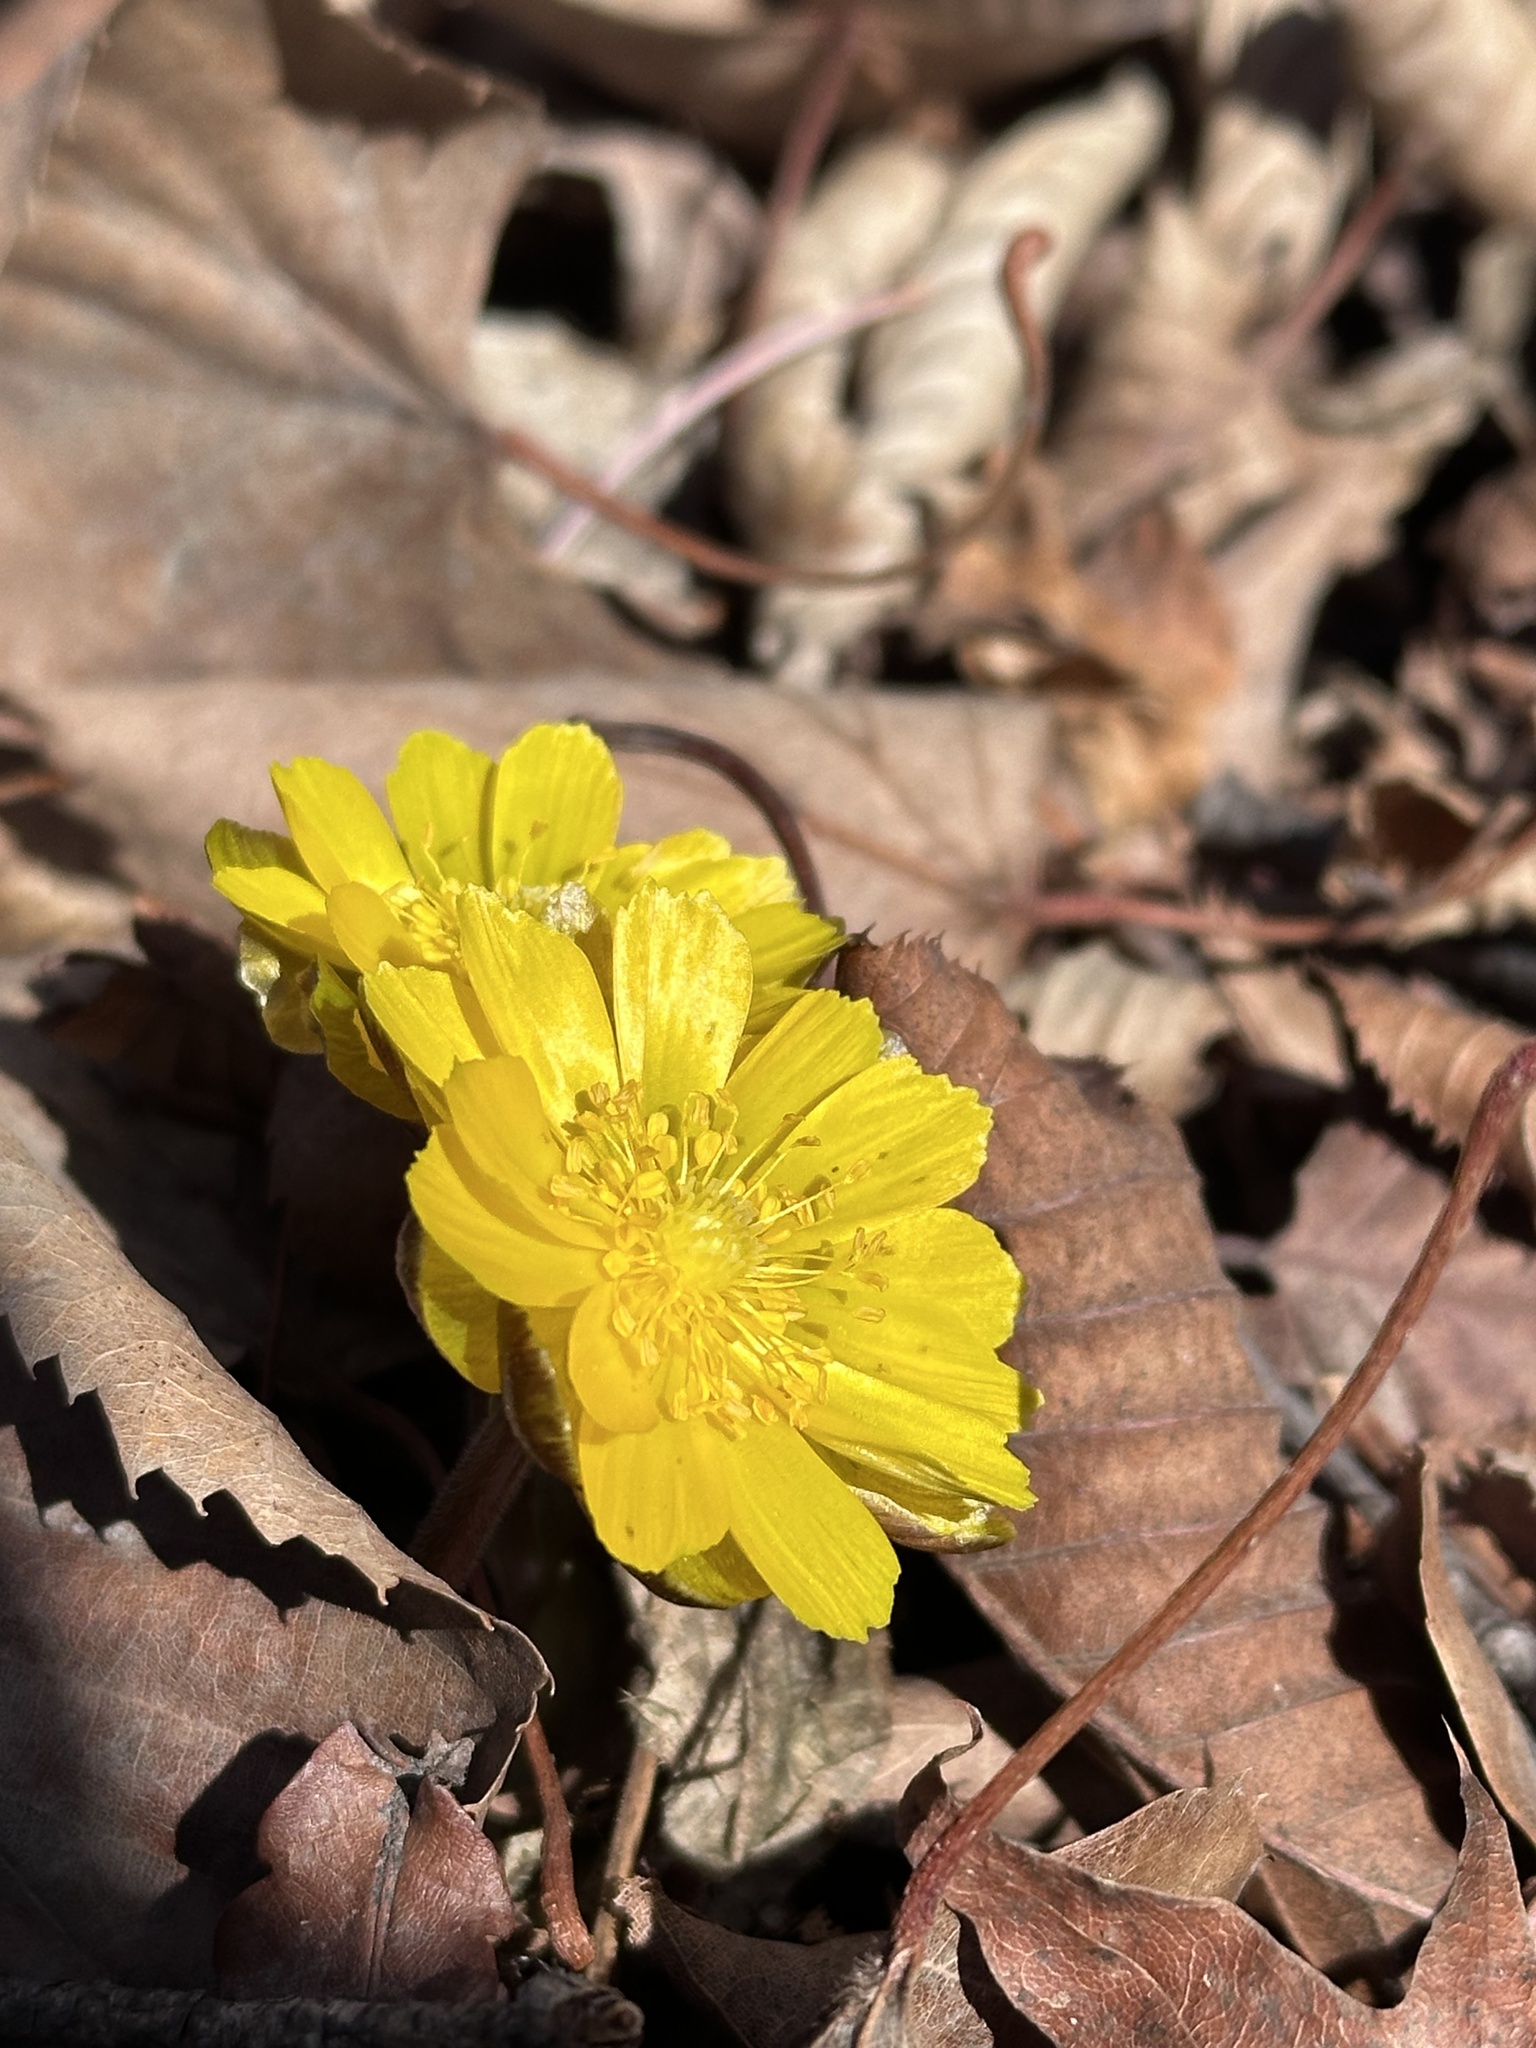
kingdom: Plantae
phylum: Tracheophyta
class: Magnoliopsida
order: Ranunculales
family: Ranunculaceae
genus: Adonis
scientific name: Adonis amurensis
